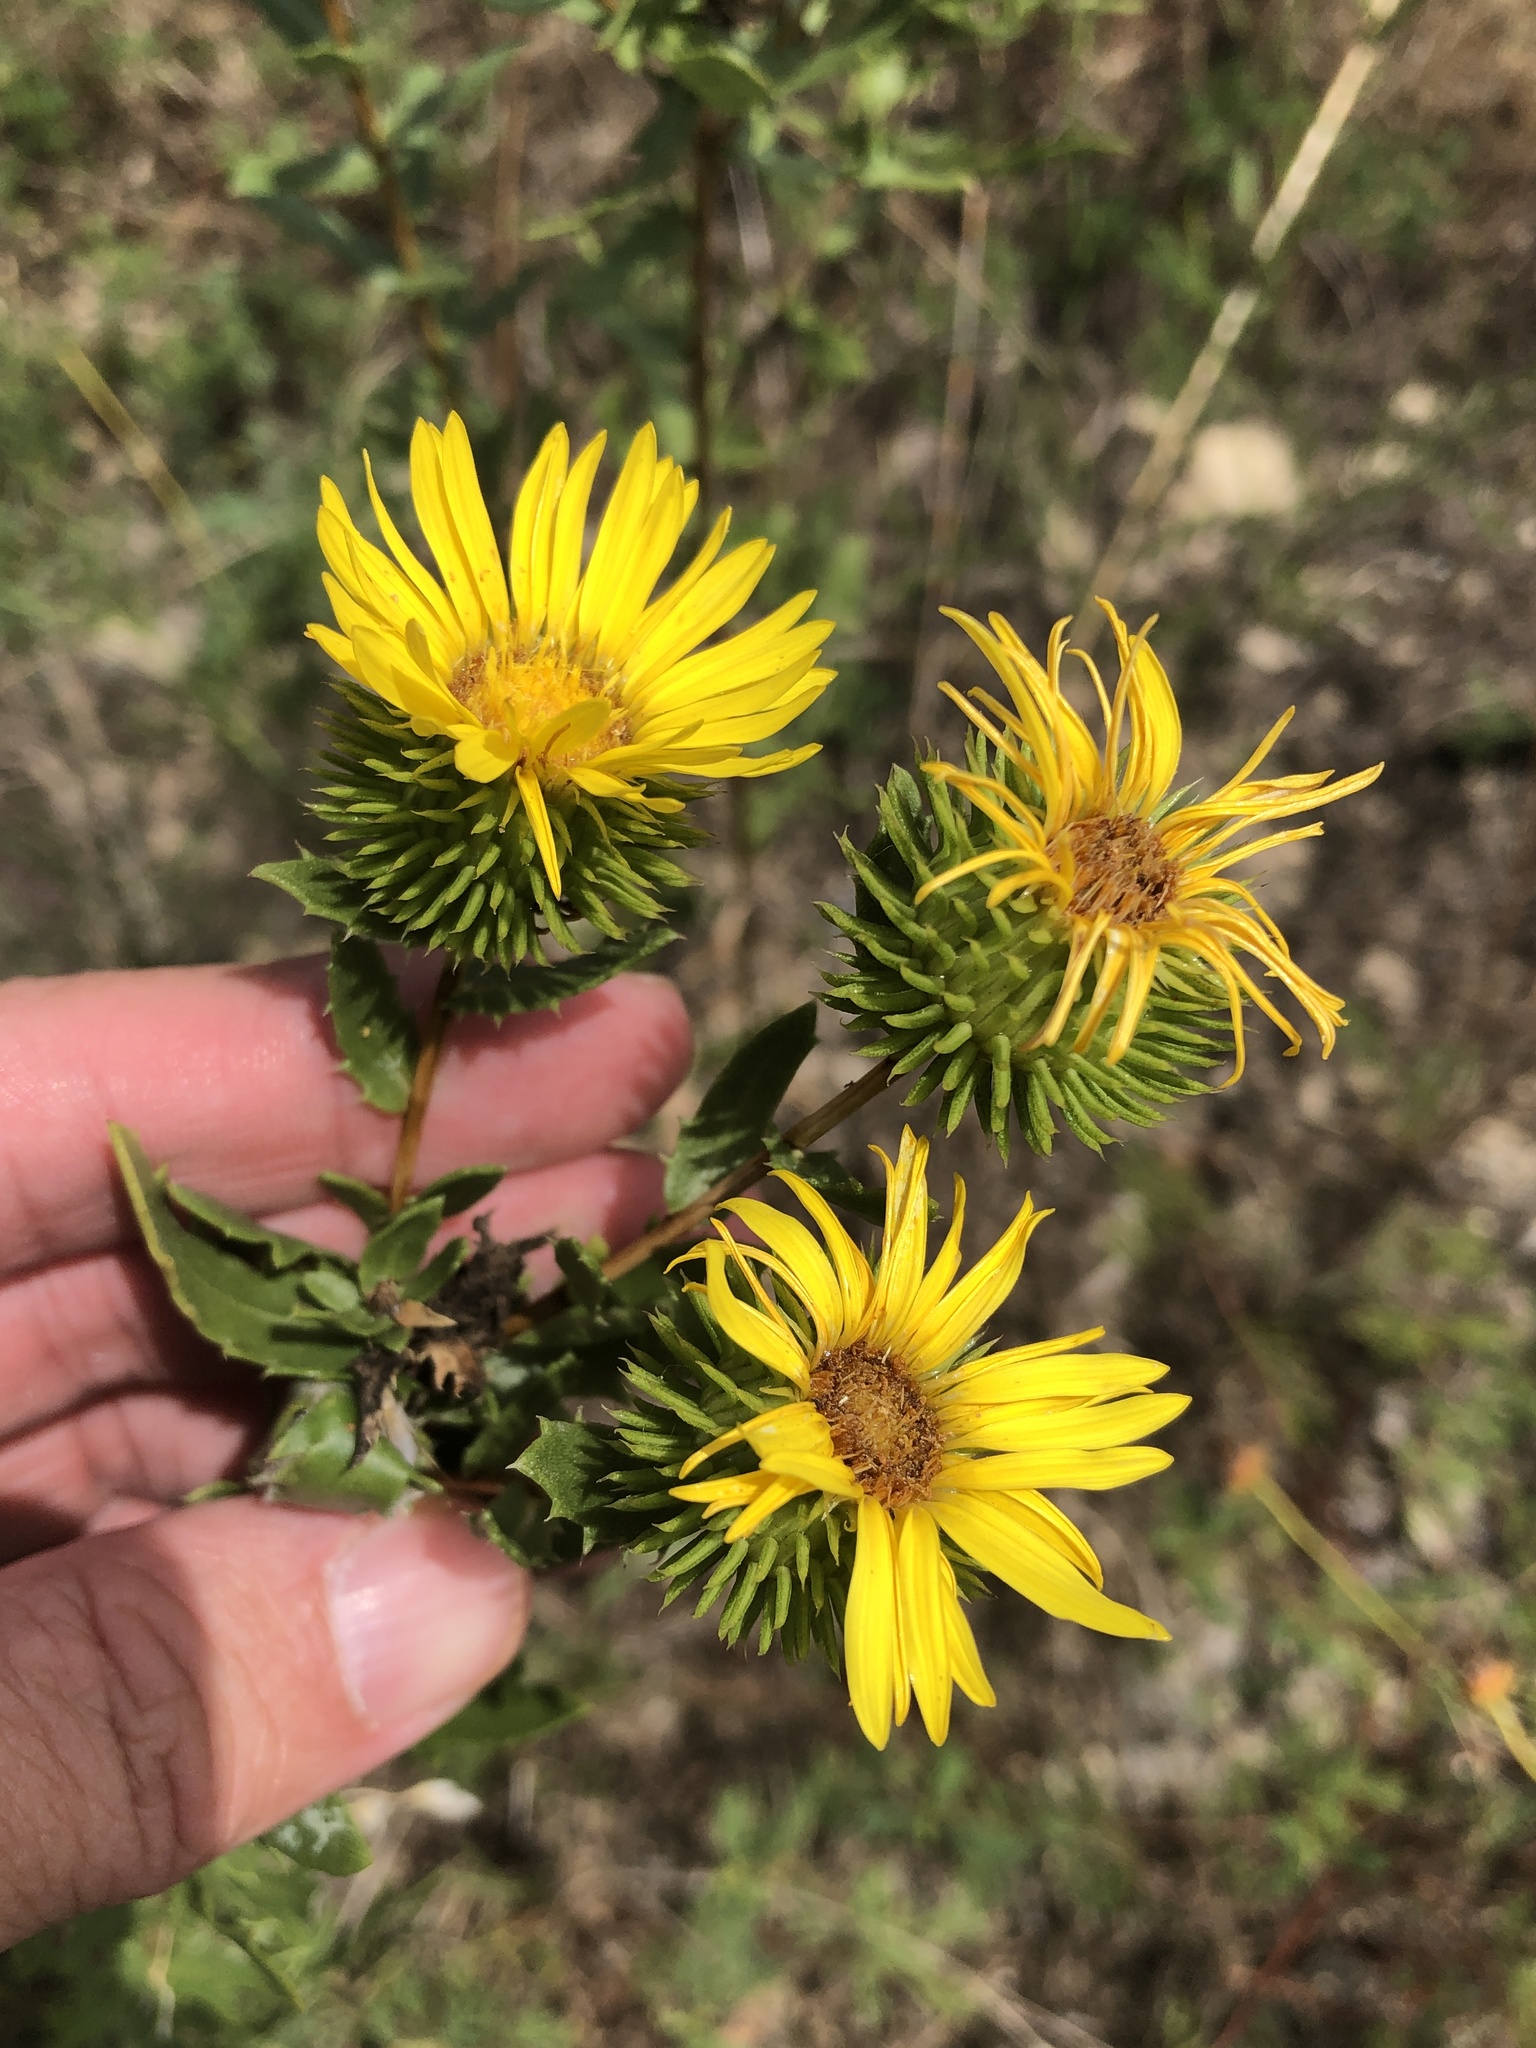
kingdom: Plantae
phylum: Tracheophyta
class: Magnoliopsida
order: Asterales
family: Asteraceae
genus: Grindelia
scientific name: Grindelia lanceolata
